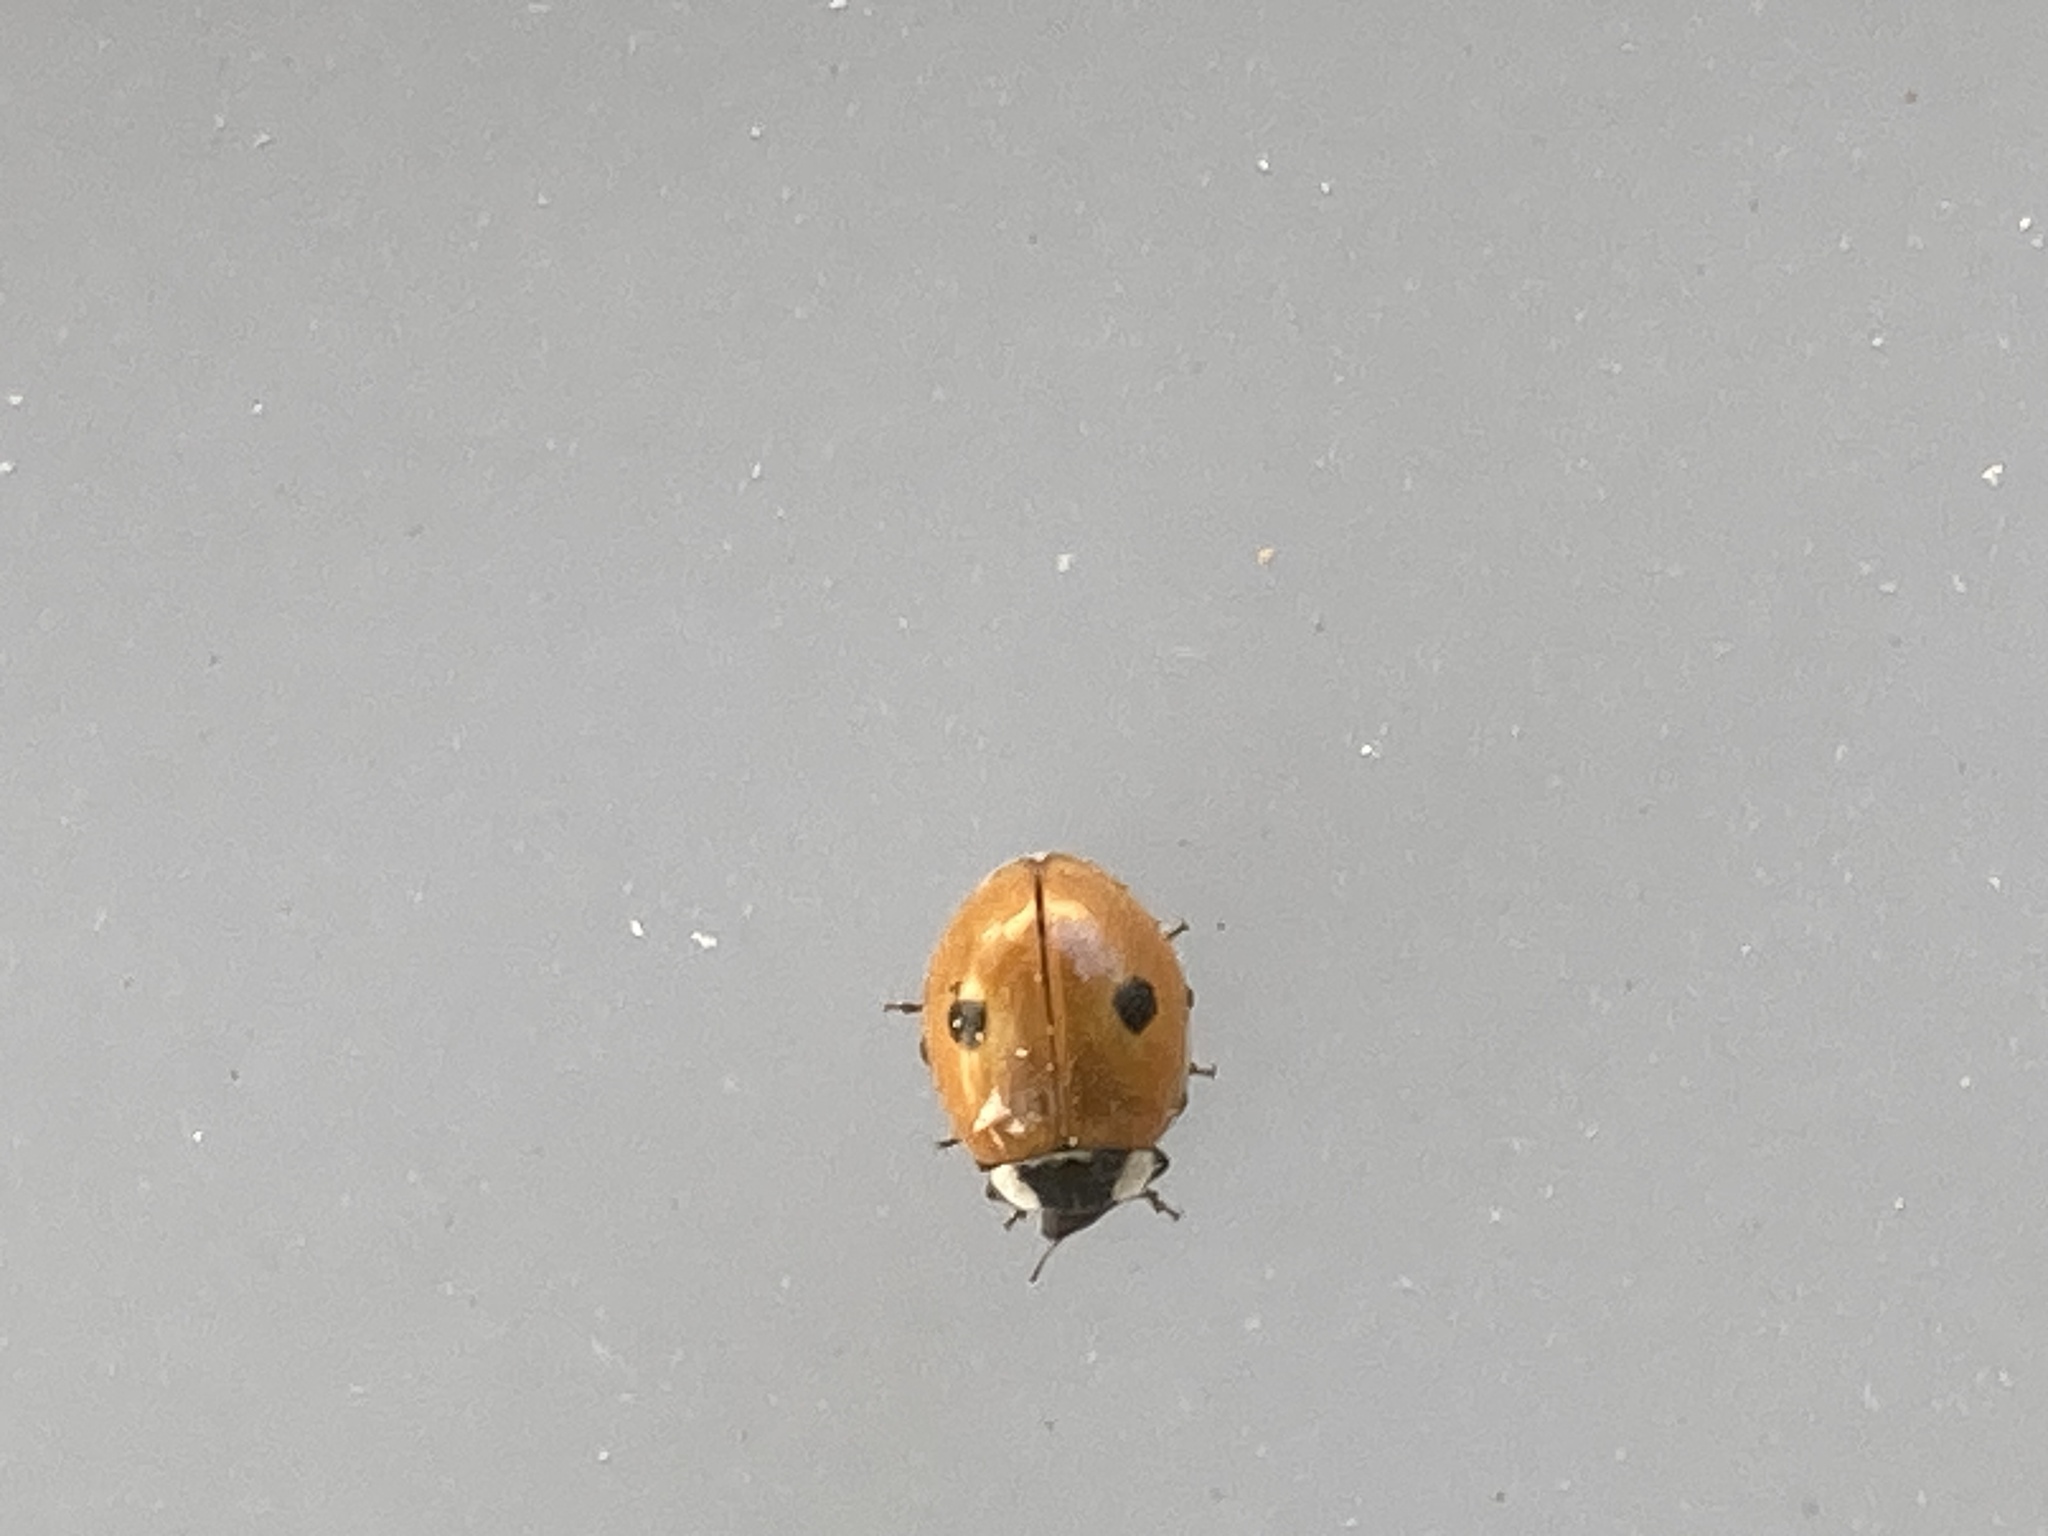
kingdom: Animalia
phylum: Arthropoda
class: Insecta
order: Coleoptera
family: Coccinellidae
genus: Adalia
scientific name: Adalia bipunctata
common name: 2-spot ladybird
